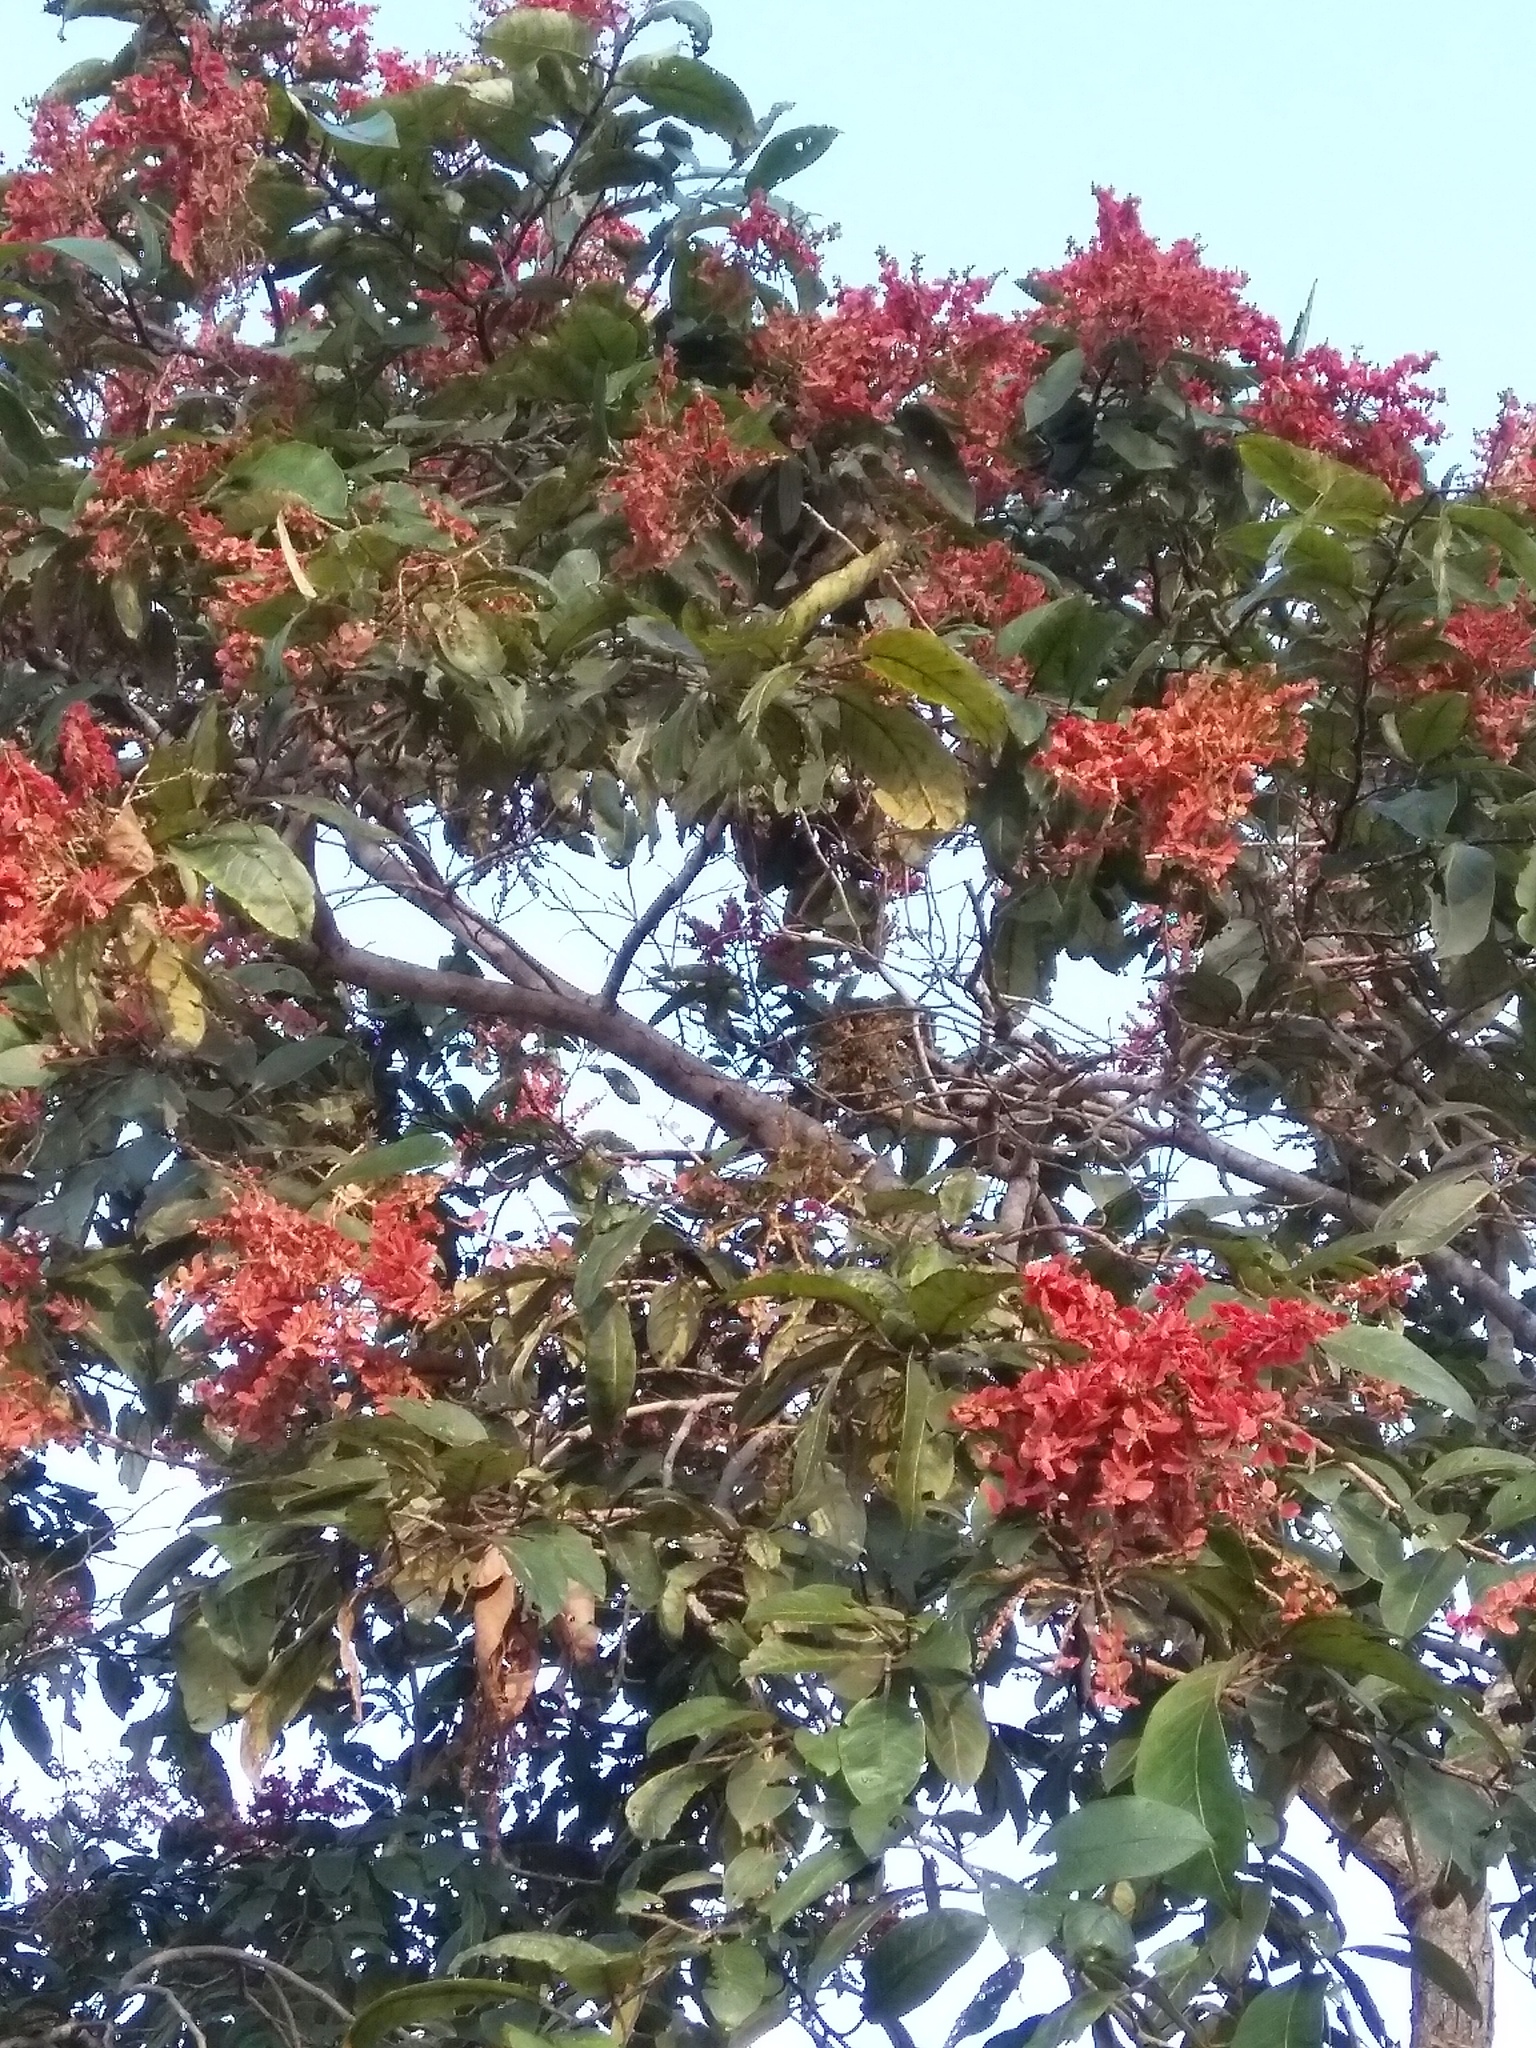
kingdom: Plantae
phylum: Tracheophyta
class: Magnoliopsida
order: Myrtales
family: Combretaceae
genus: Terminalia
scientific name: Terminalia paniculata
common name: Flowering murdah
